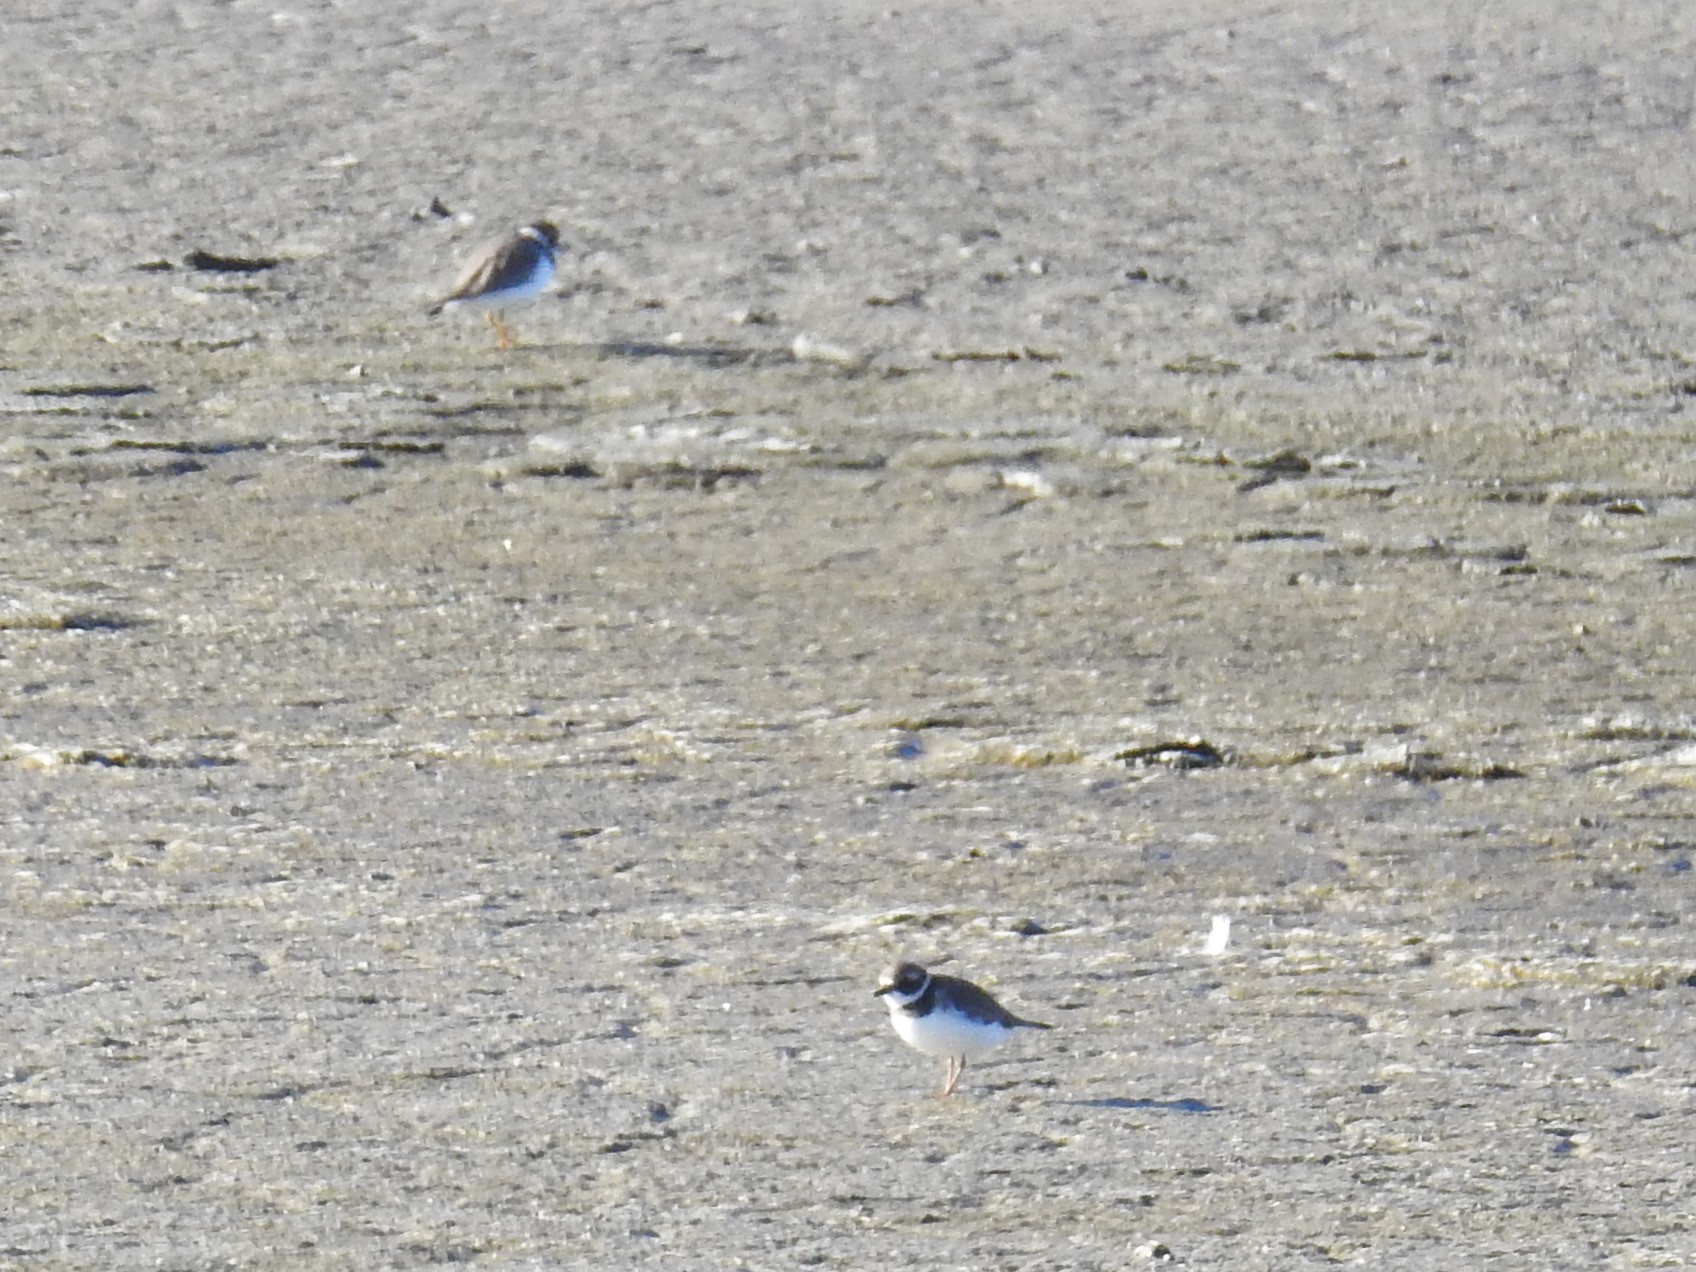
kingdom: Animalia
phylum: Chordata
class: Aves
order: Charadriiformes
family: Charadriidae
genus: Charadrius
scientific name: Charadrius semipalmatus
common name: Semipalmated plover
